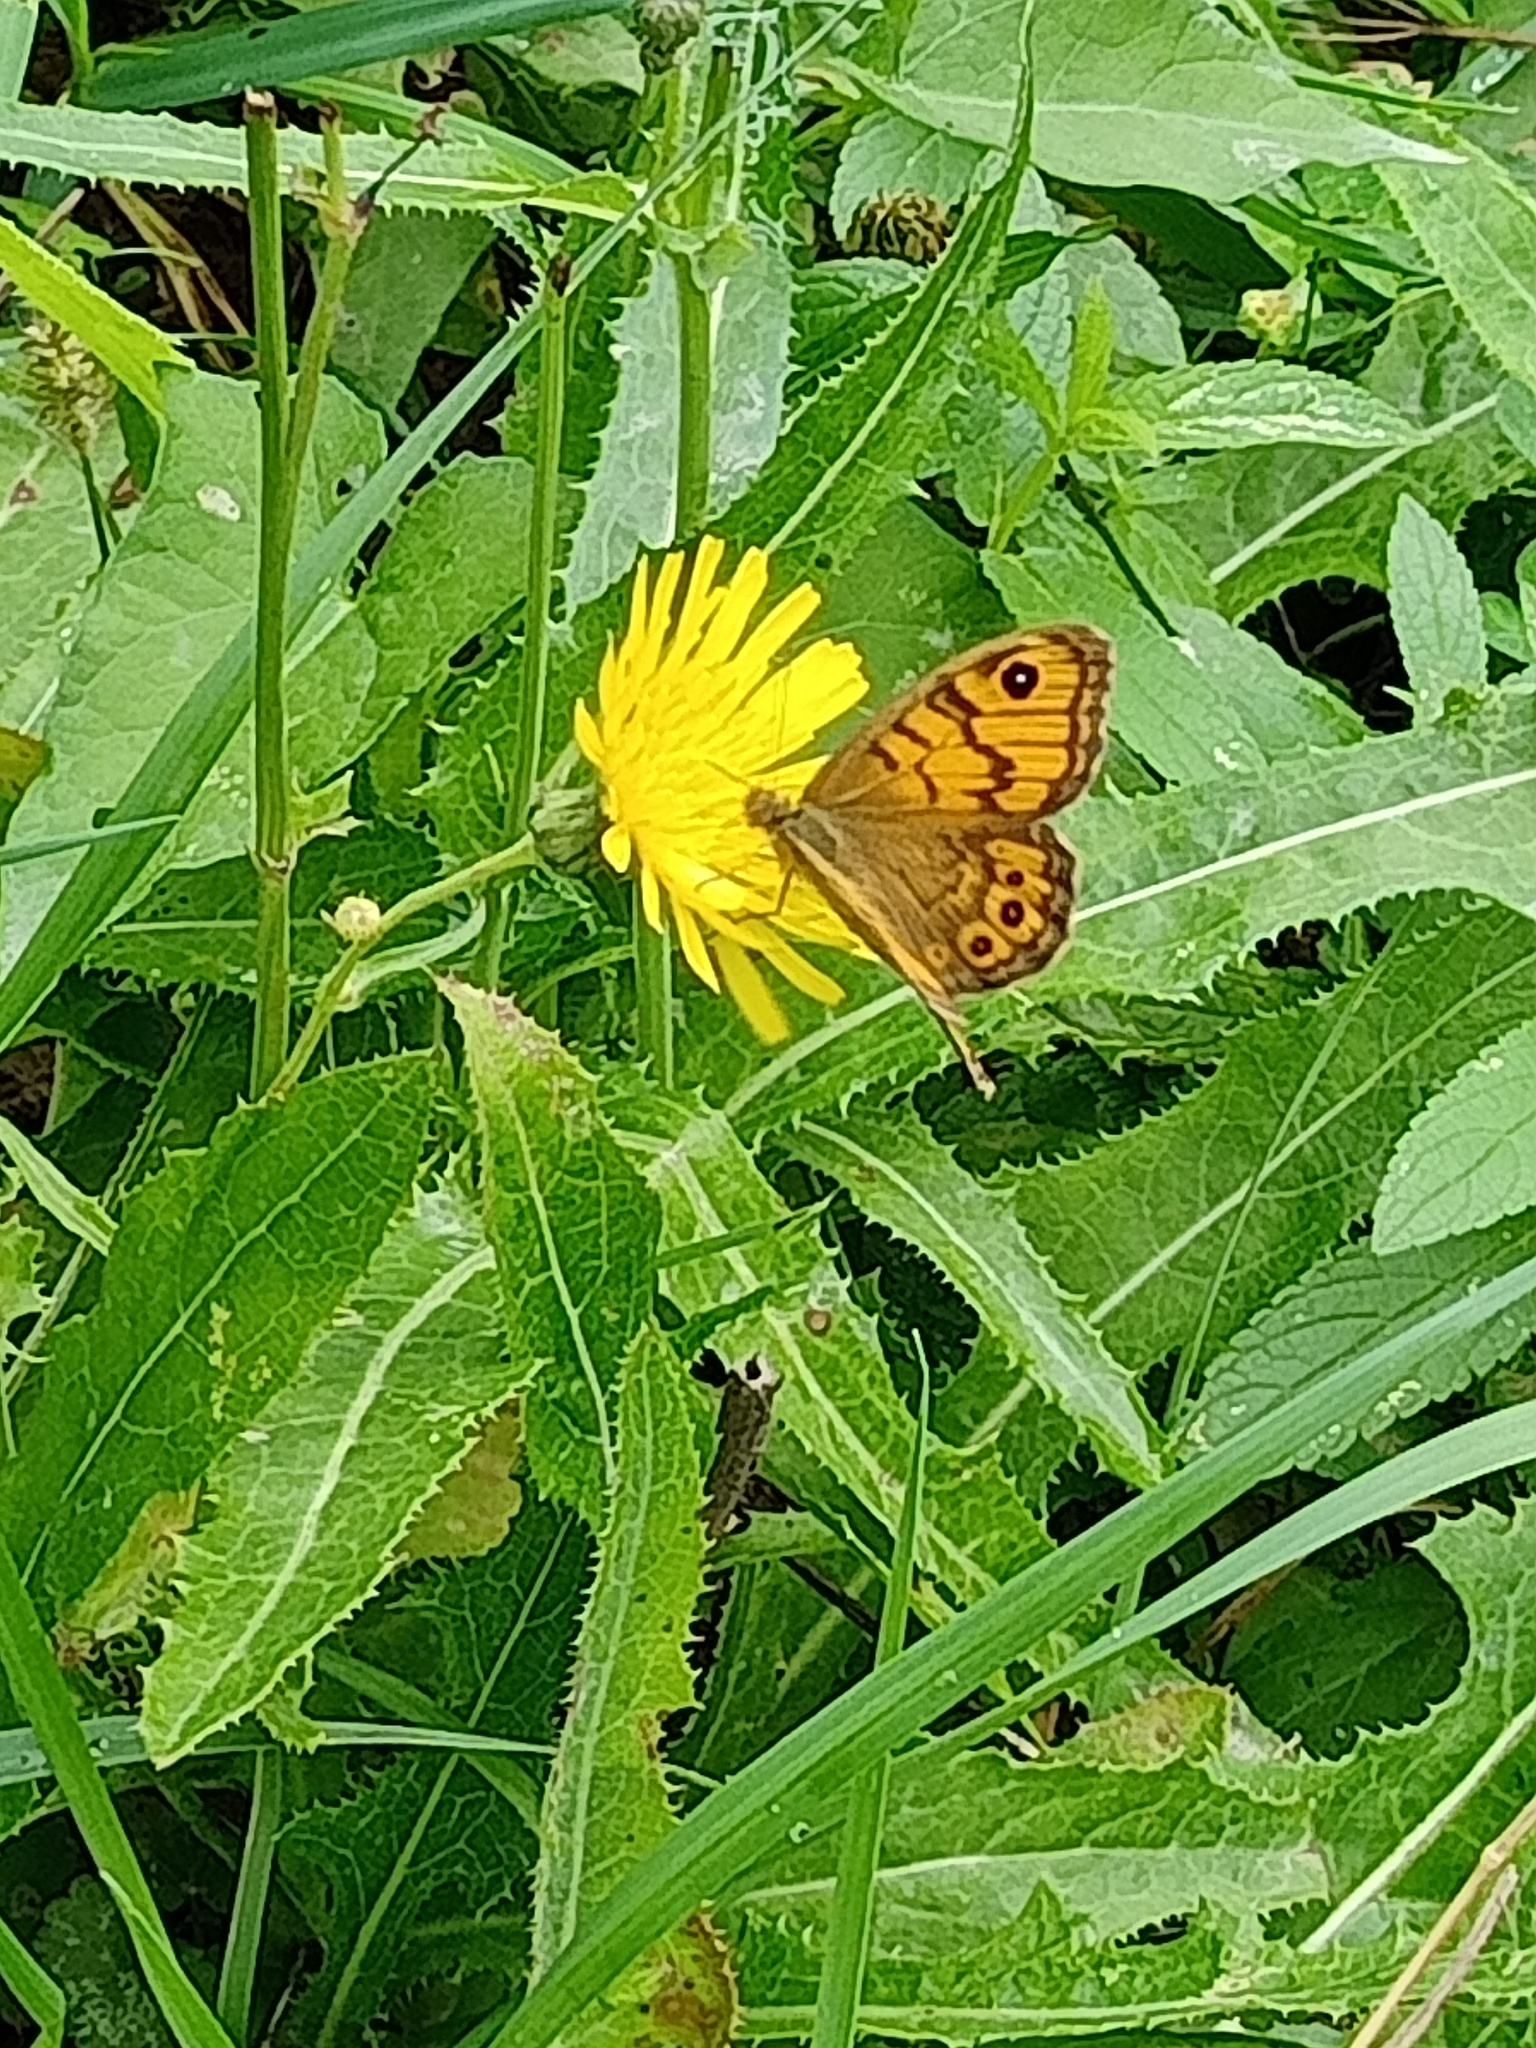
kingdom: Animalia
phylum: Arthropoda
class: Insecta
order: Lepidoptera
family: Nymphalidae
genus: Pararge
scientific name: Pararge Lasiommata megera
